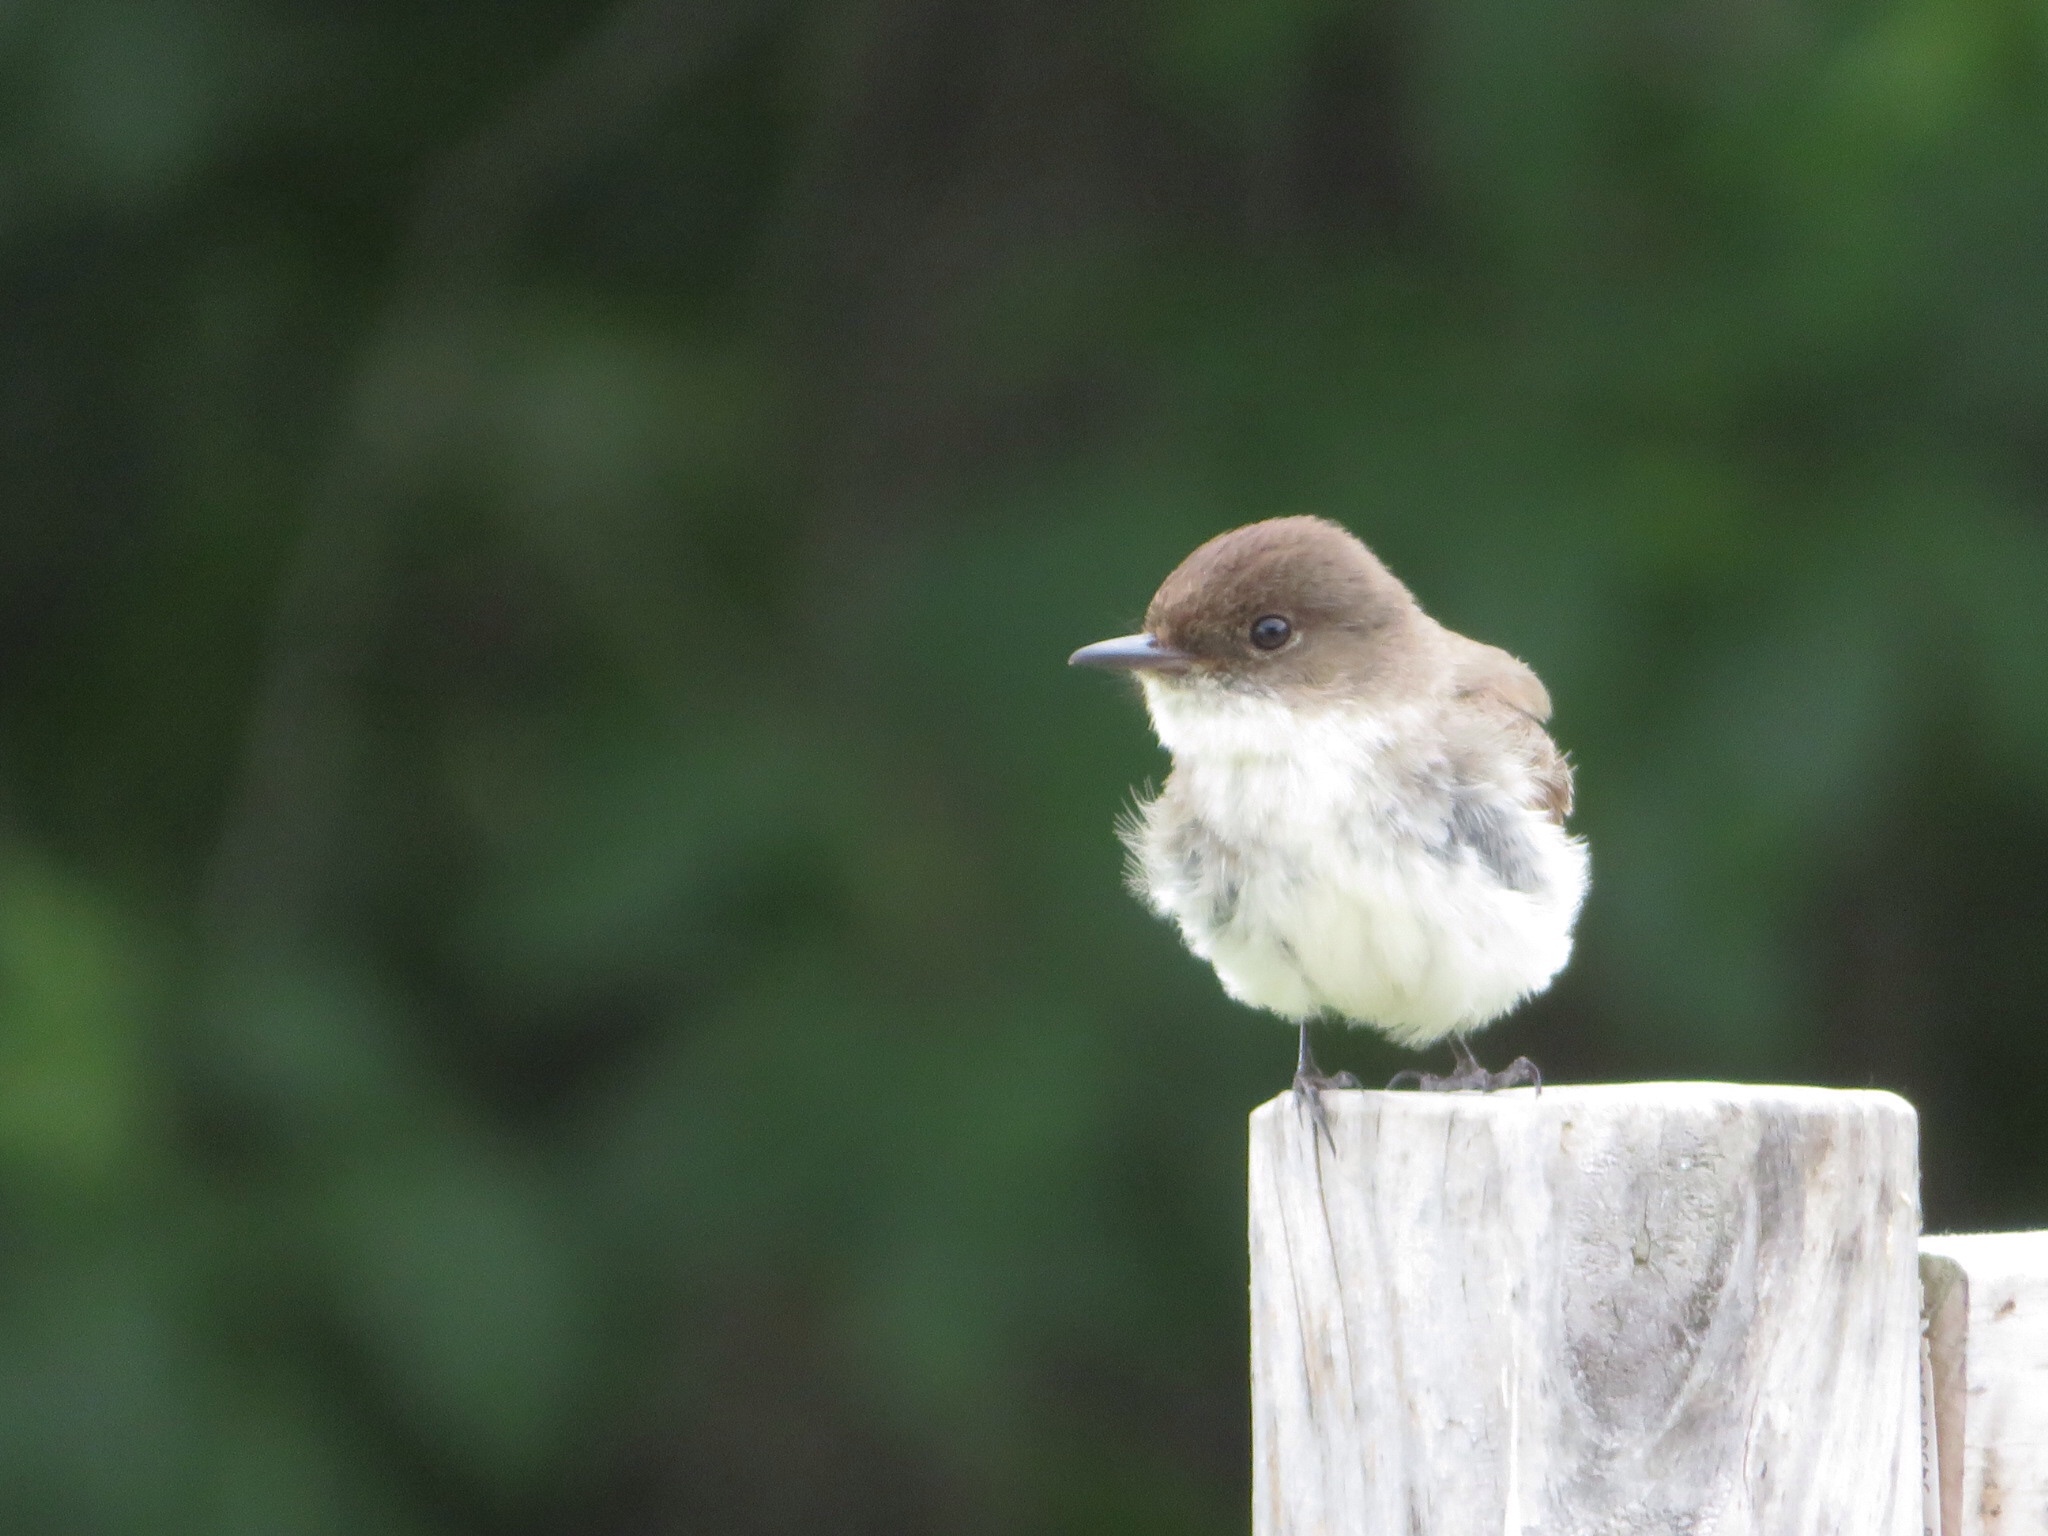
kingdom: Animalia
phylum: Chordata
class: Aves
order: Passeriformes
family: Tyrannidae
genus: Sayornis
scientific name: Sayornis phoebe
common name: Eastern phoebe
